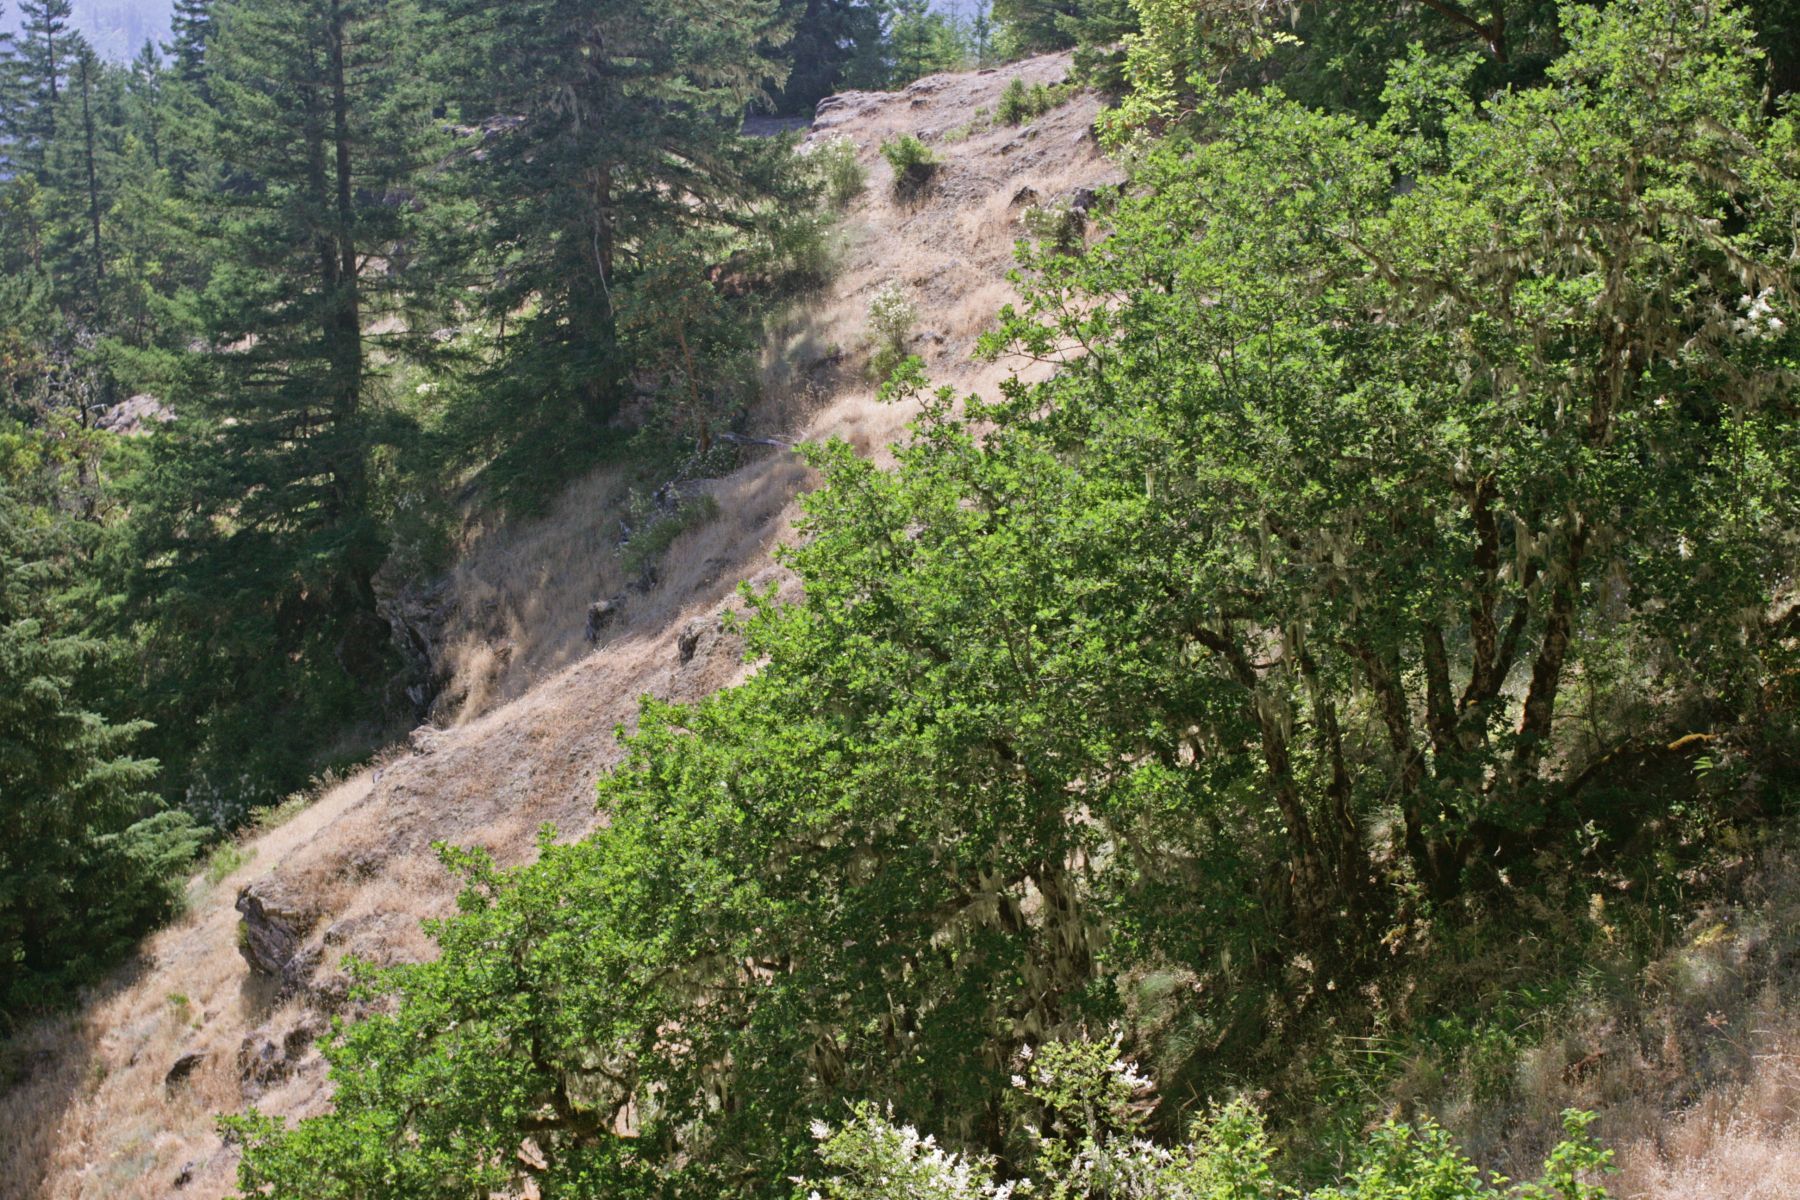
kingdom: Plantae
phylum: Tracheophyta
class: Magnoliopsida
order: Fagales
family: Fagaceae
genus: Quercus
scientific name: Quercus garryana
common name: Garry oak
